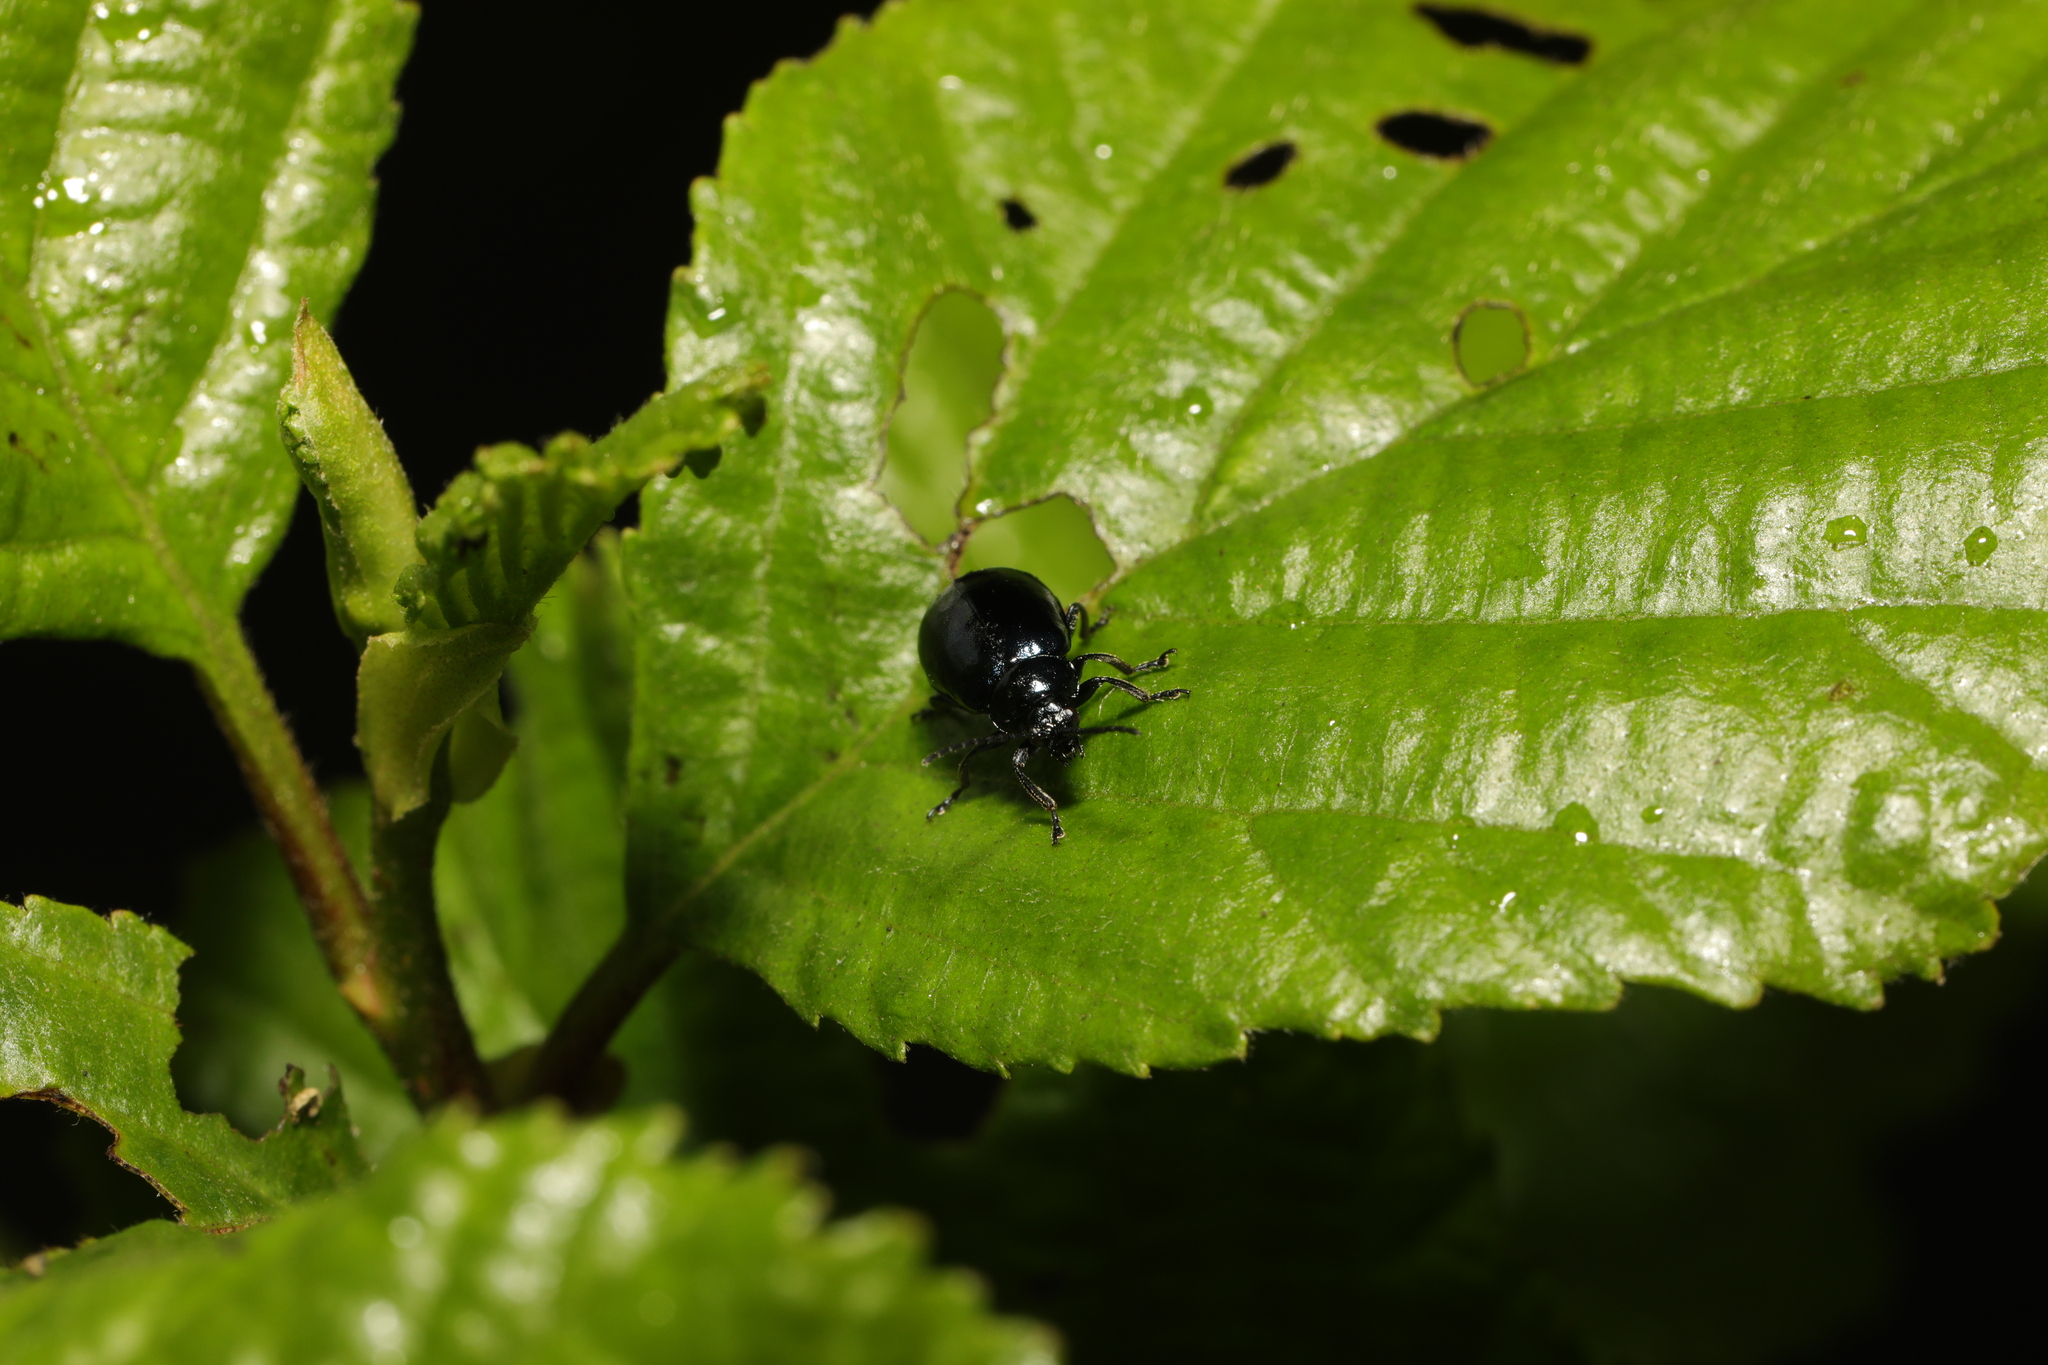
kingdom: Animalia
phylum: Arthropoda
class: Insecta
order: Coleoptera
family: Chrysomelidae
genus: Agelastica
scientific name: Agelastica alni
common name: Alder leaf beetle
